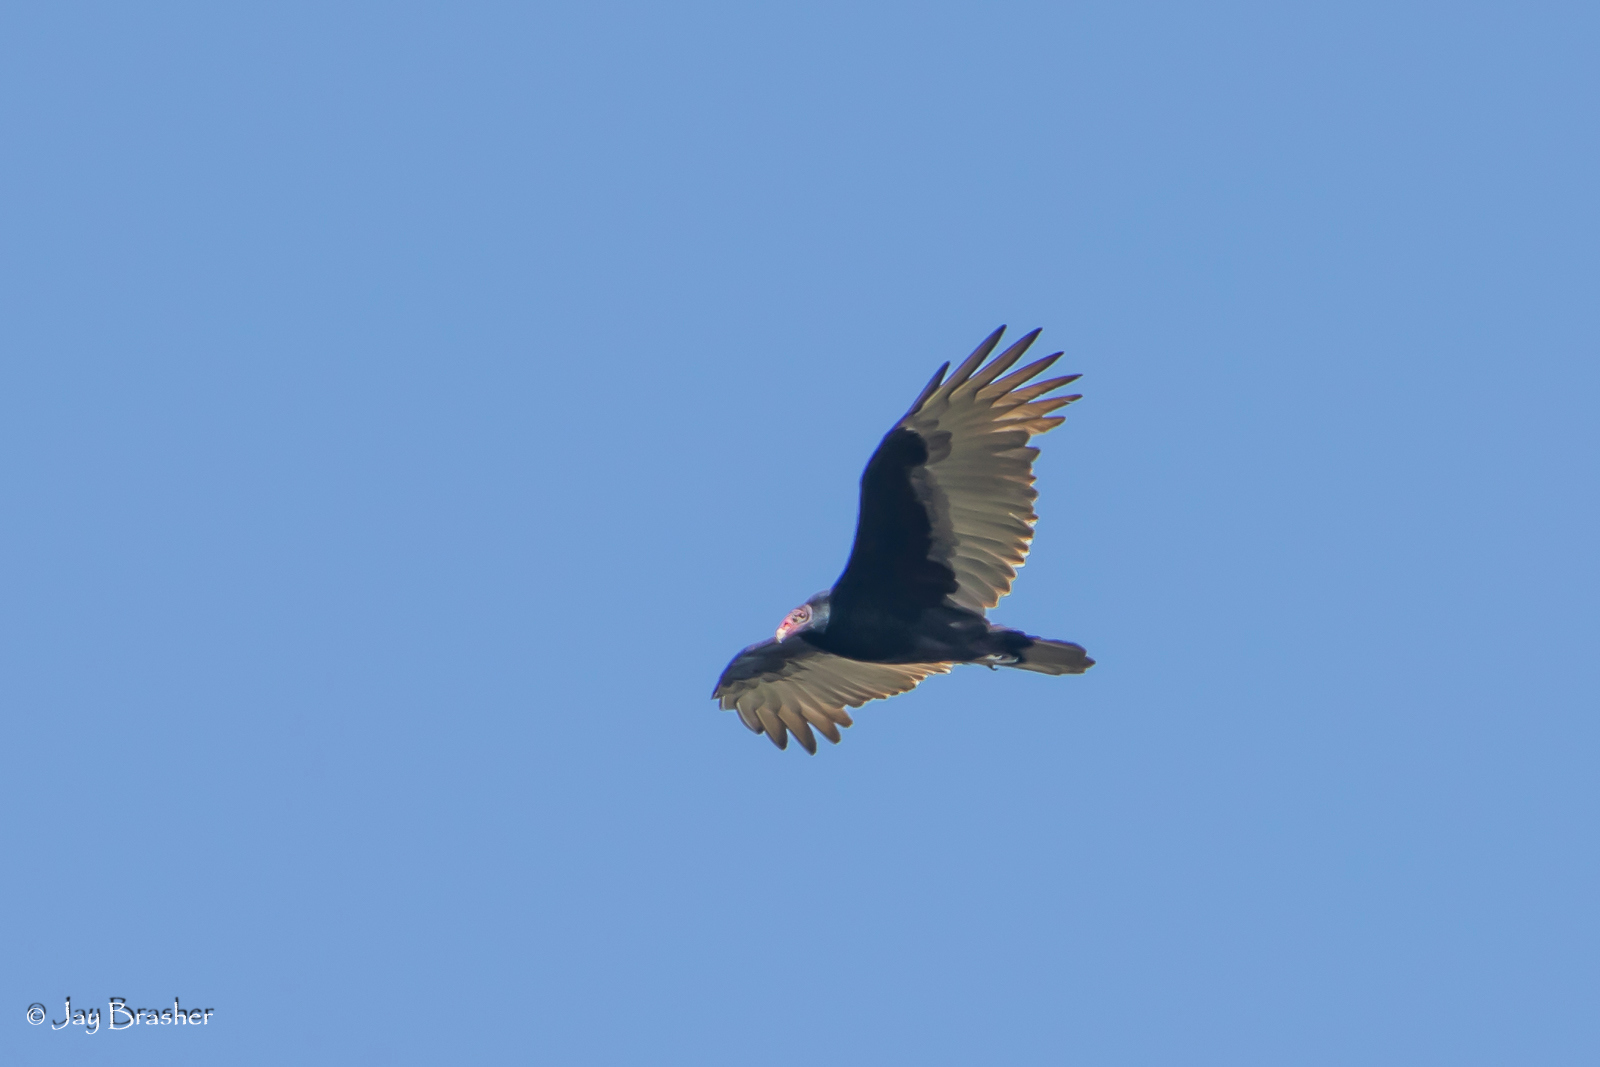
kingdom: Animalia
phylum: Chordata
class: Aves
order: Accipitriformes
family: Cathartidae
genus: Cathartes
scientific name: Cathartes aura
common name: Turkey vulture
